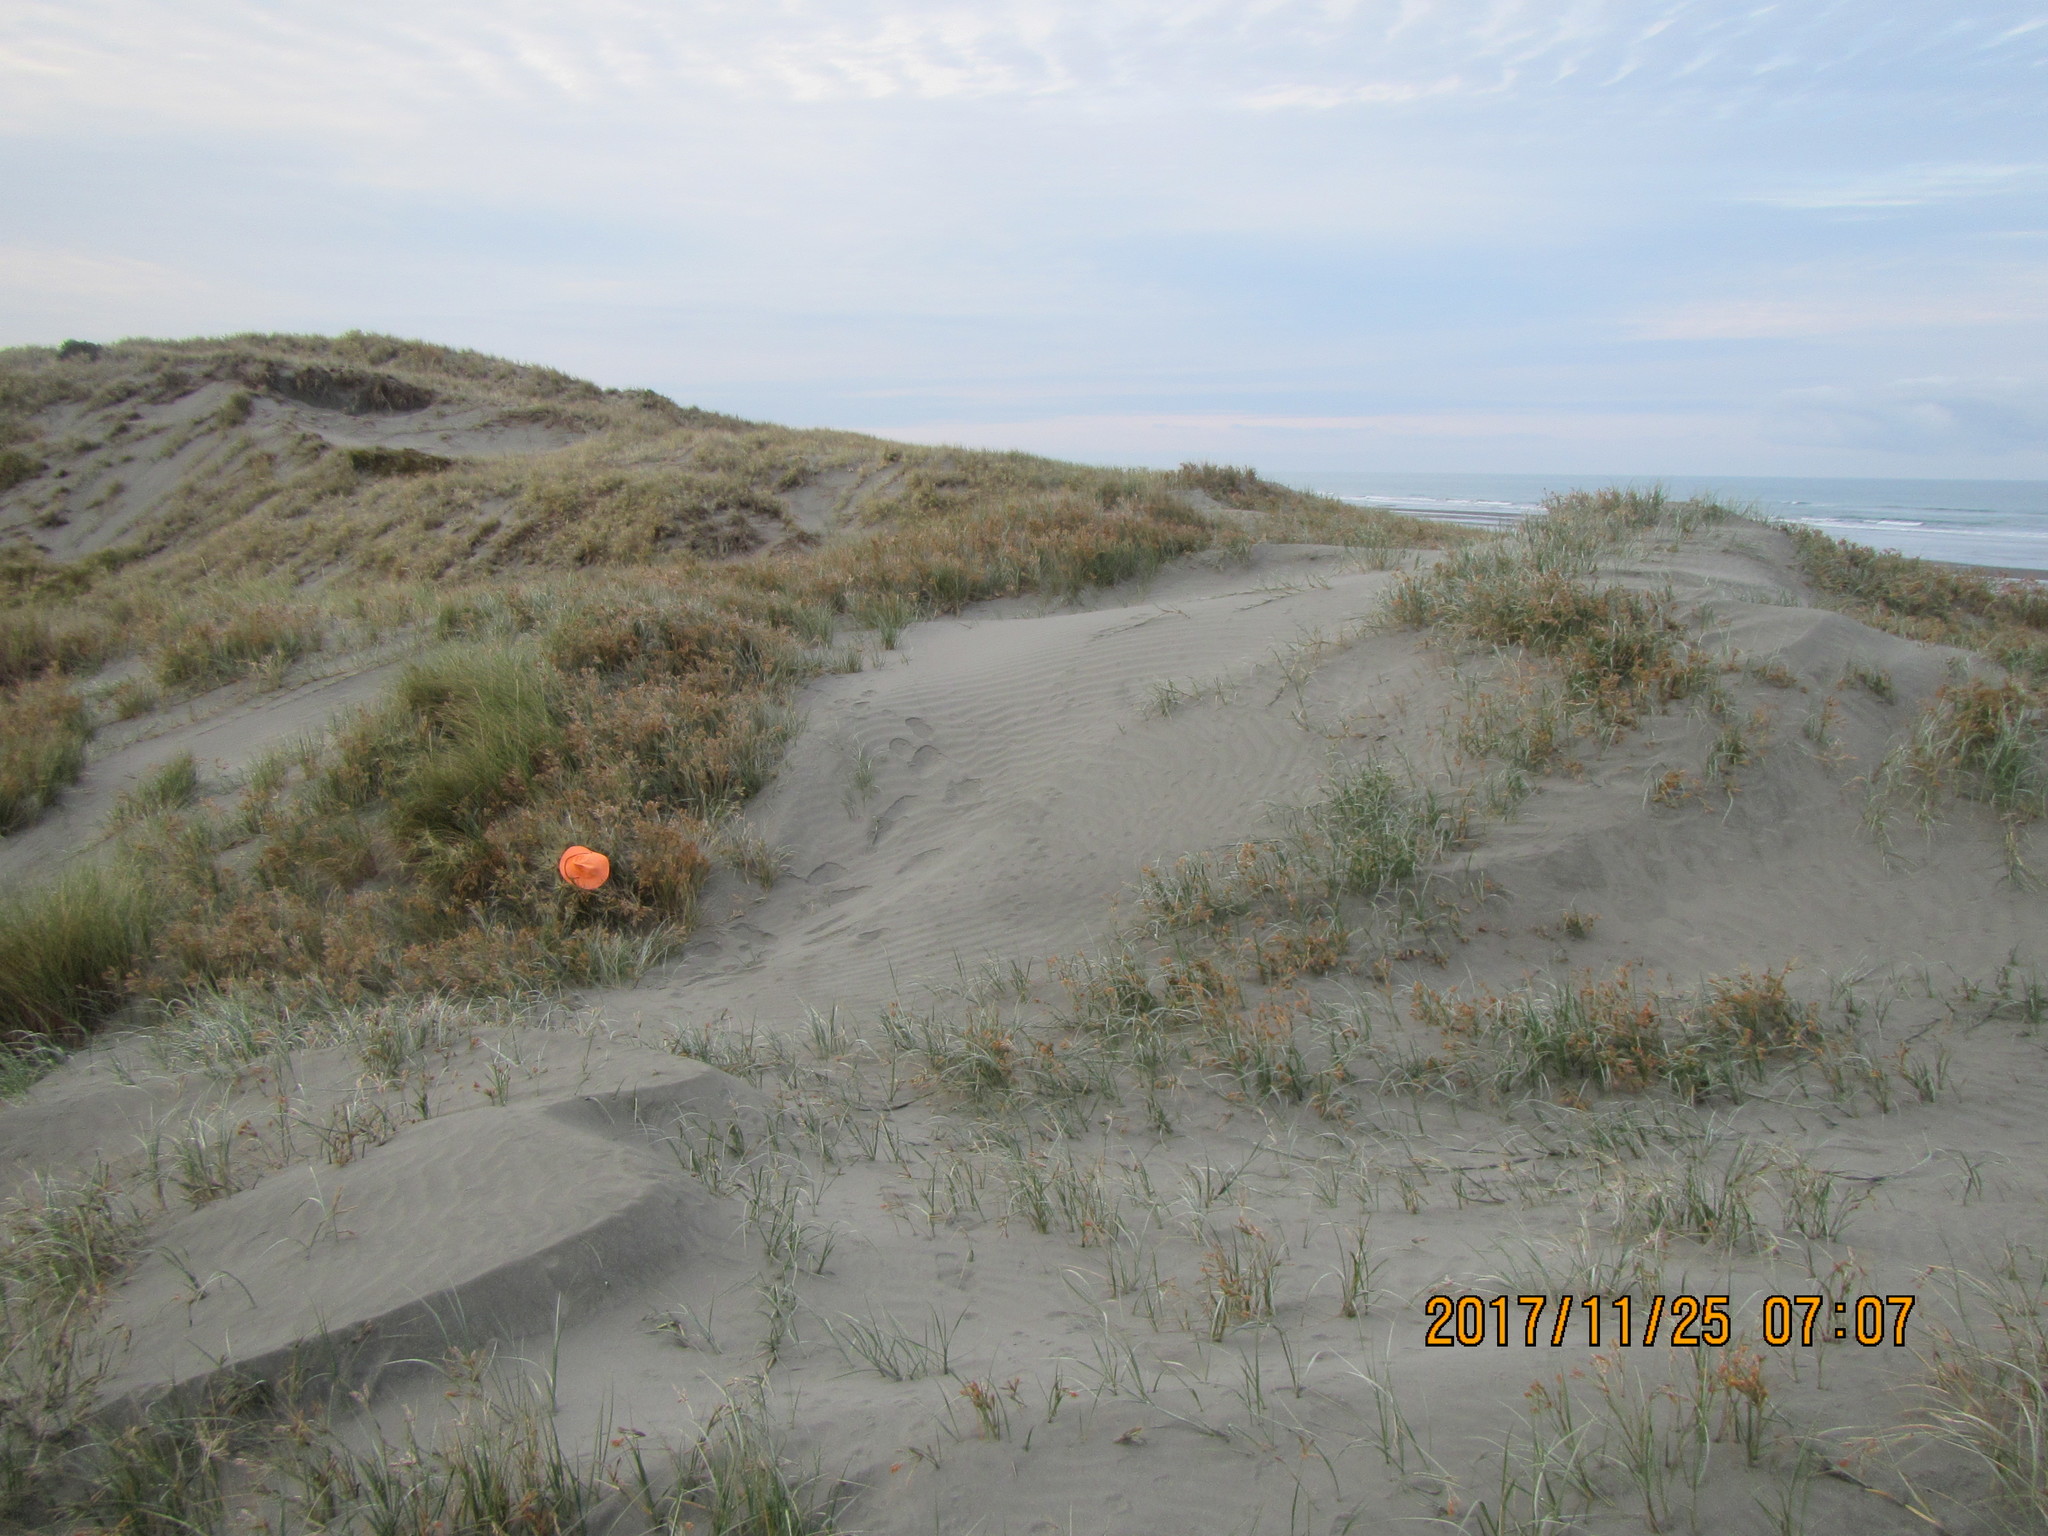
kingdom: Animalia
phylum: Arthropoda
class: Arachnida
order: Araneae
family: Theridiidae
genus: Steatoda
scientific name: Steatoda lepida
